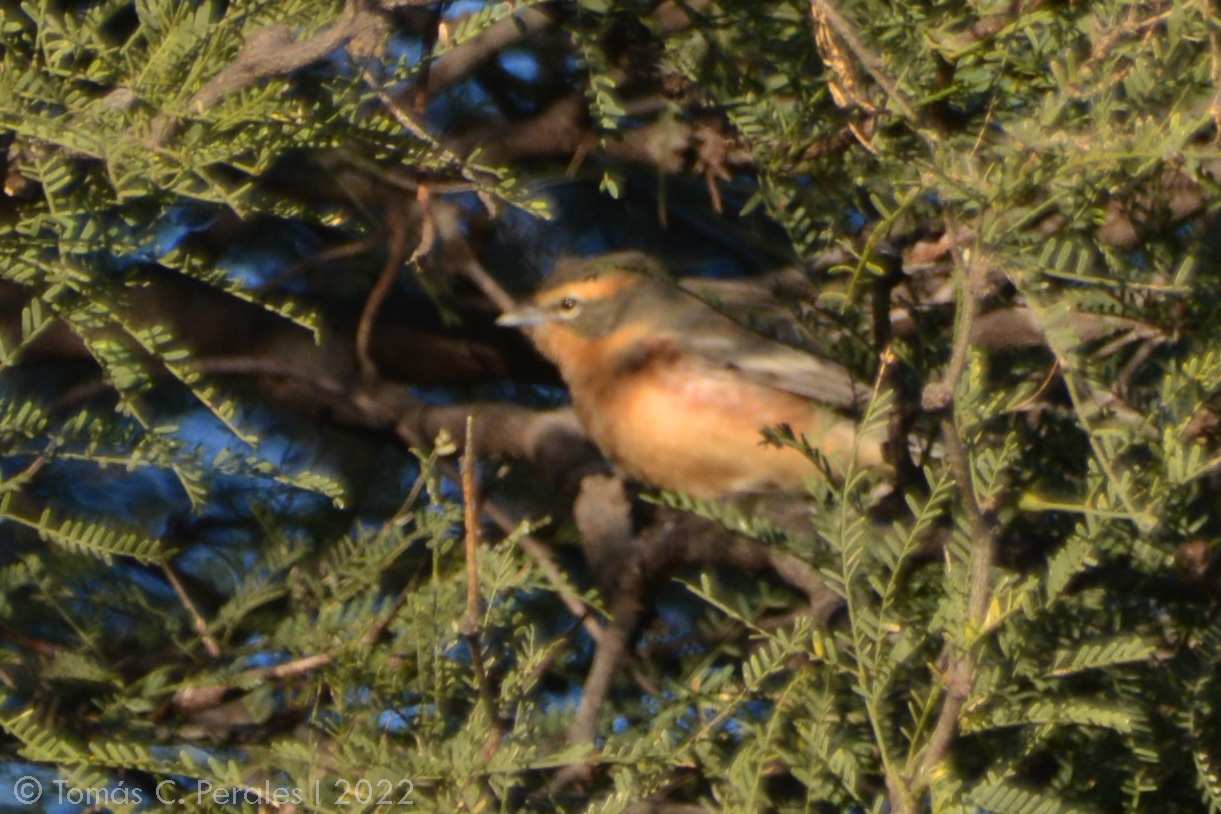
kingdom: Animalia
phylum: Chordata
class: Aves
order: Passeriformes
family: Thraupidae
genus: Poospiza
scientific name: Poospiza ornata
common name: Cinnamon warbling finch
